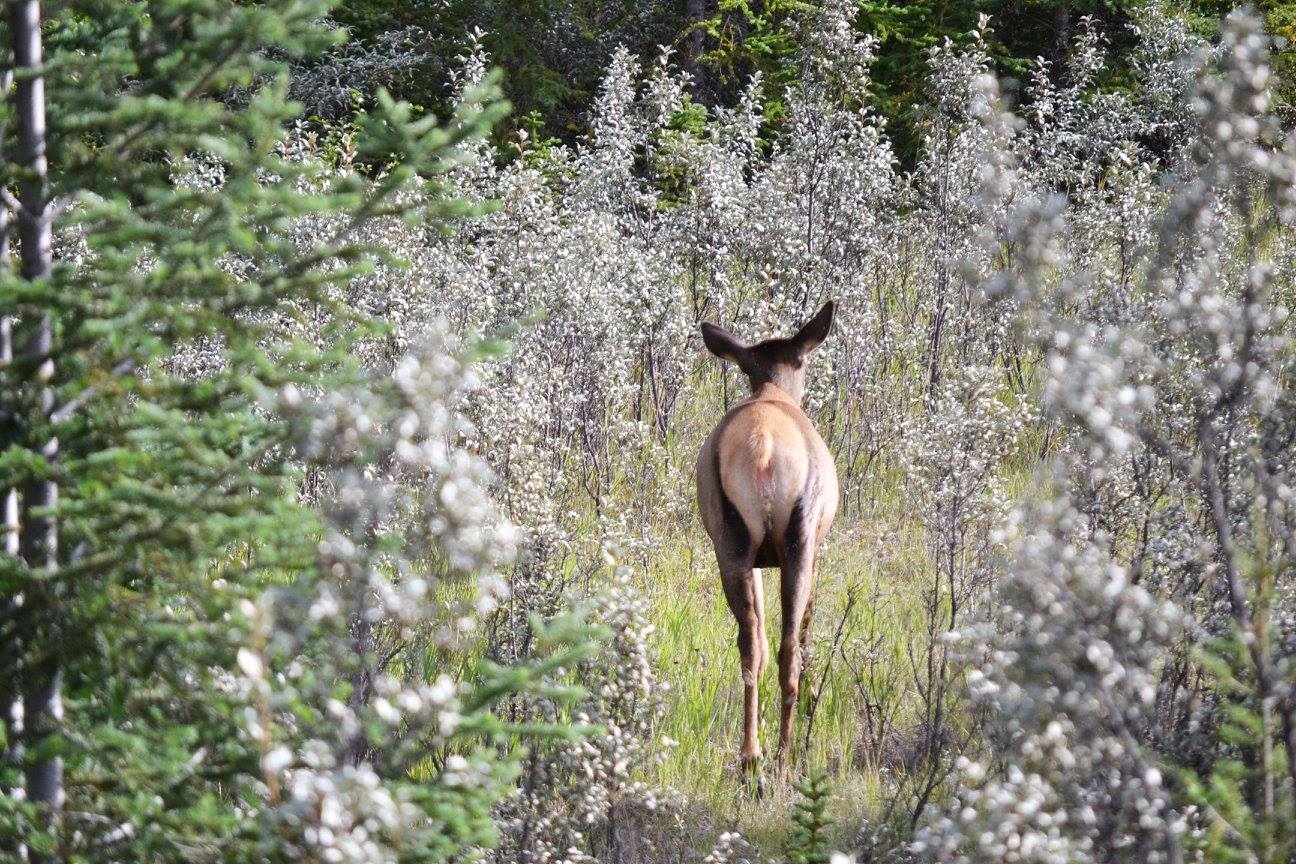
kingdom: Animalia
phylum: Chordata
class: Mammalia
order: Artiodactyla
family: Cervidae
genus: Cervus
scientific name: Cervus elaphus
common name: Red deer
